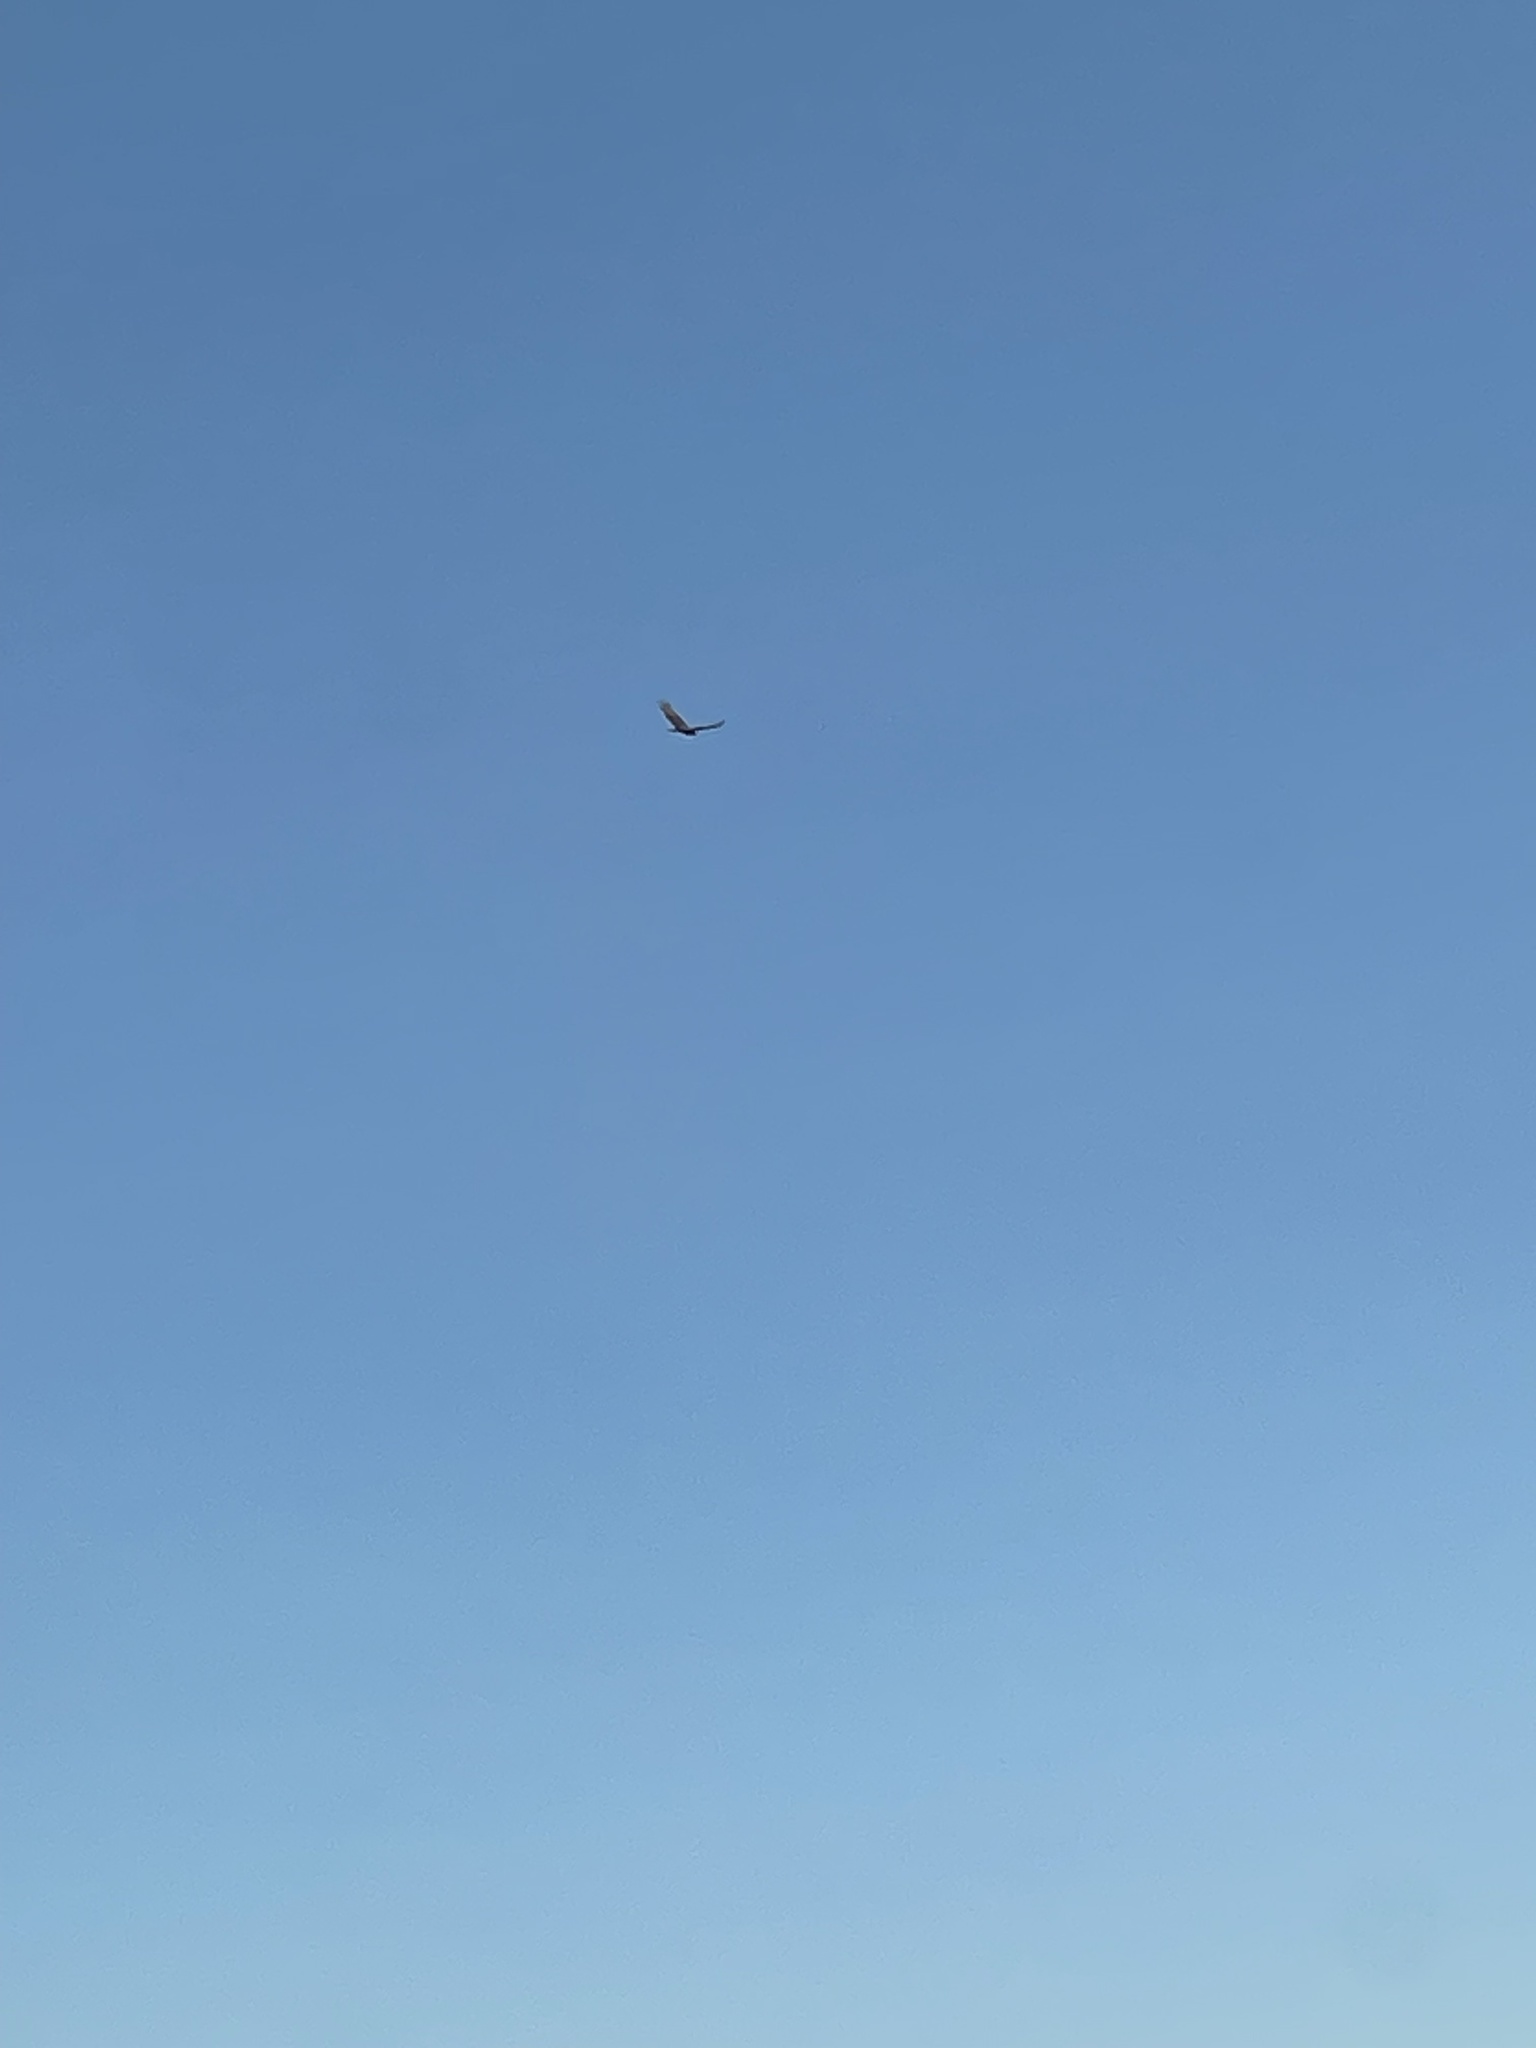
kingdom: Animalia
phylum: Chordata
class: Aves
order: Accipitriformes
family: Cathartidae
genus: Cathartes
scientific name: Cathartes aura
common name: Turkey vulture
